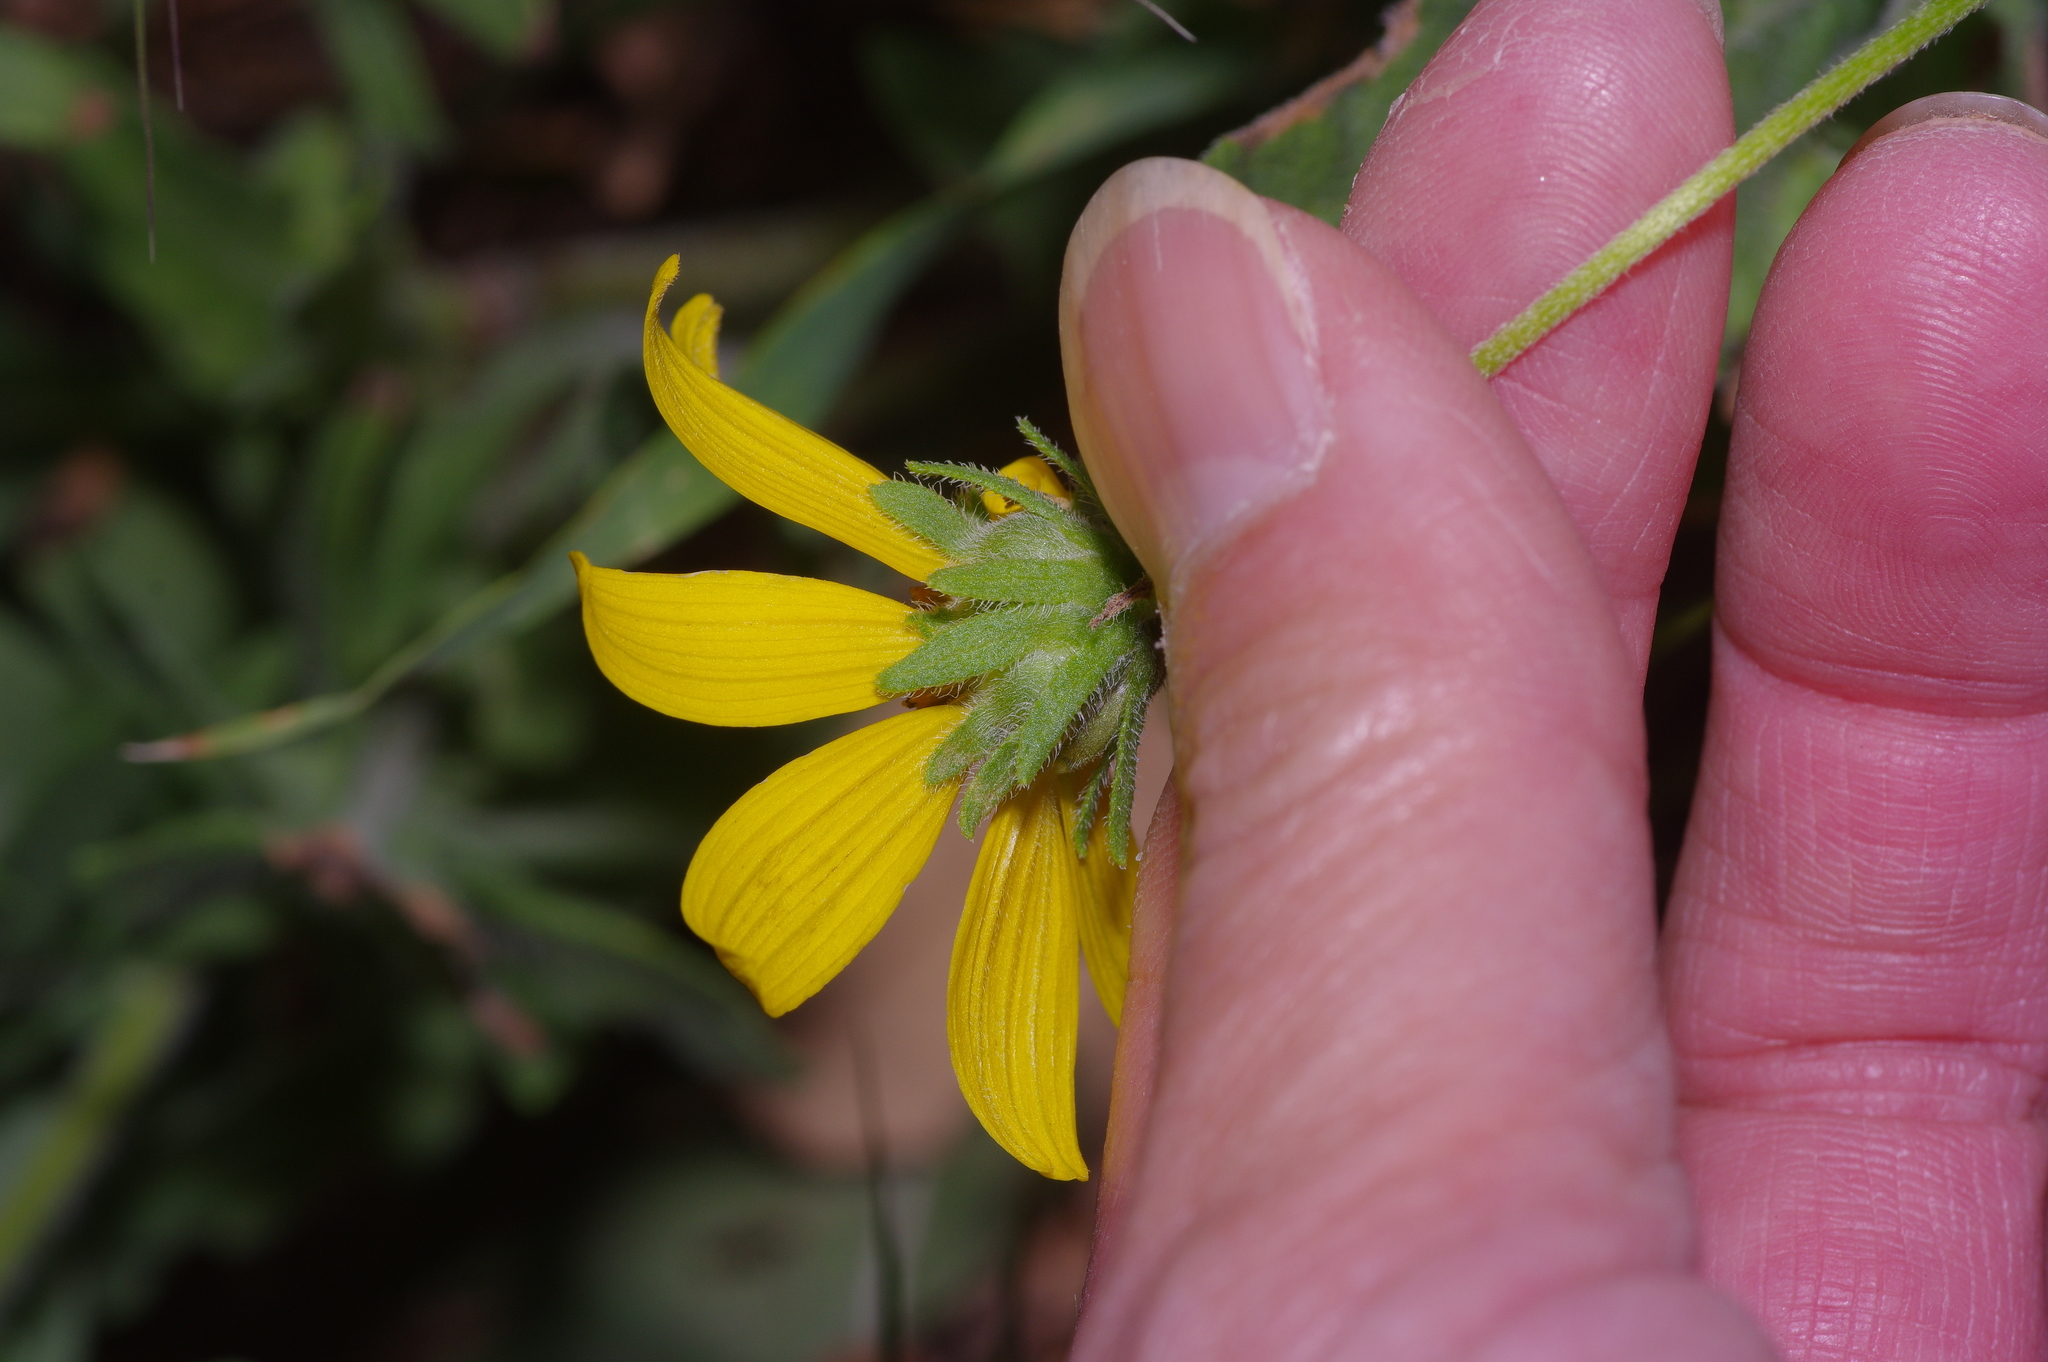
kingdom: Plantae
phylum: Tracheophyta
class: Magnoliopsida
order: Asterales
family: Asteraceae
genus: Engelmannia
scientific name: Engelmannia peristenia
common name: Engelmann's daisy
